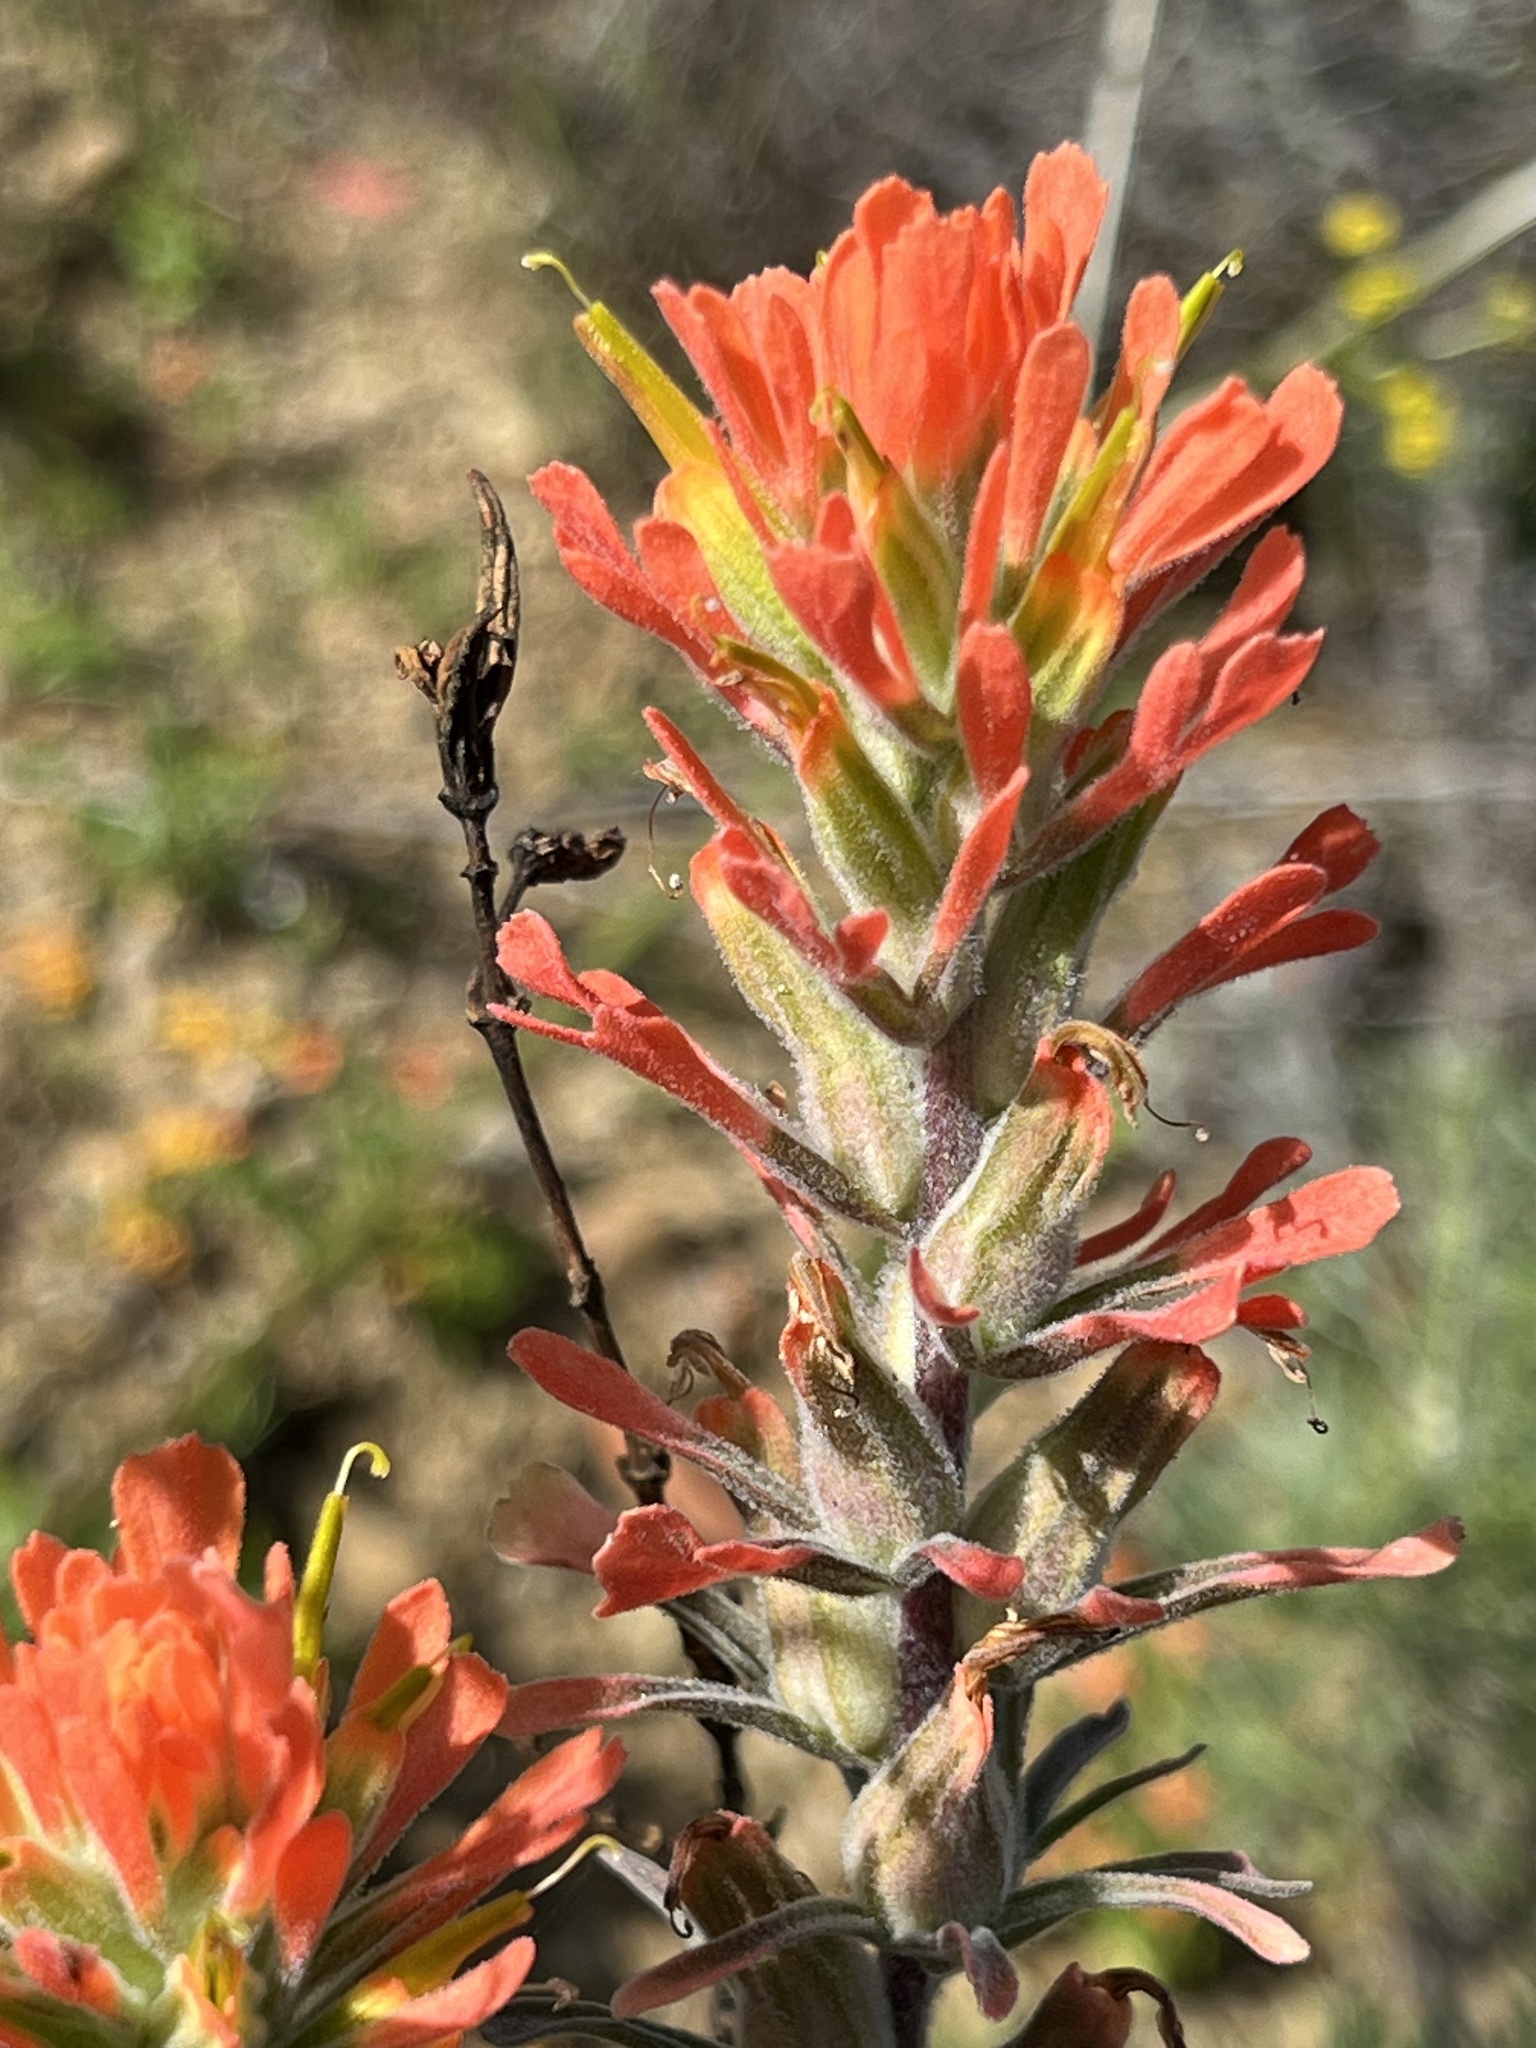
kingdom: Plantae
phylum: Tracheophyta
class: Magnoliopsida
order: Lamiales
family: Orobanchaceae
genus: Castilleja
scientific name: Castilleja foliolosa
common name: Woolly indian paintbrush
